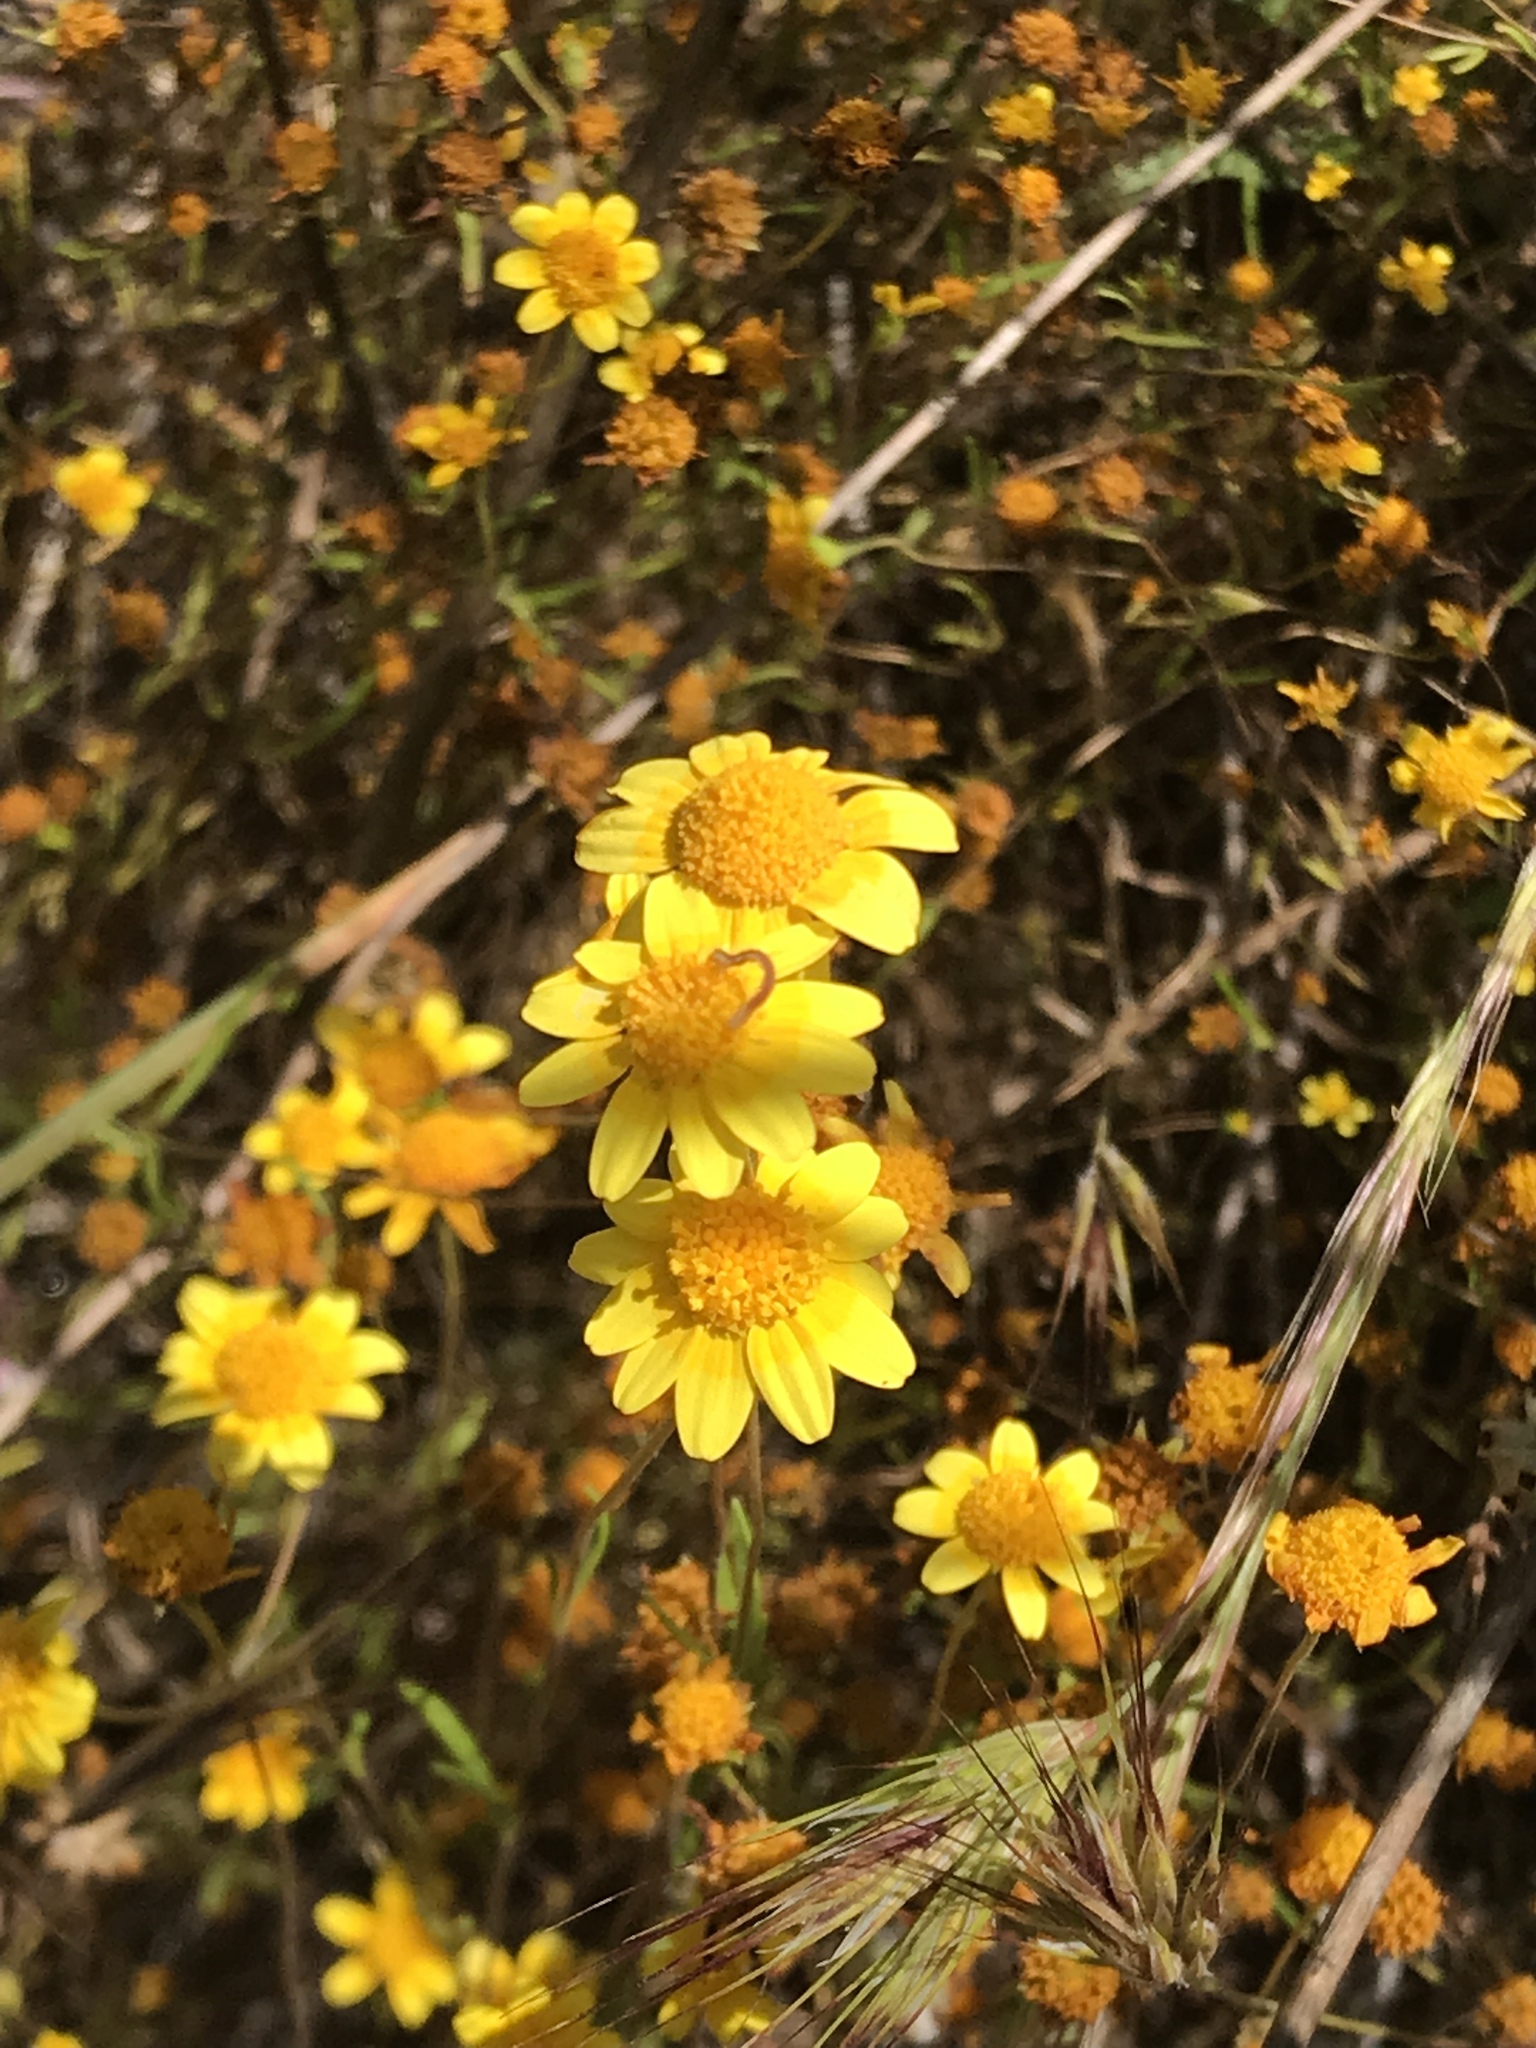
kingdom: Plantae
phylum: Tracheophyta
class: Magnoliopsida
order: Asterales
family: Asteraceae
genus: Lasthenia
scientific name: Lasthenia gracilis
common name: Common goldfields
